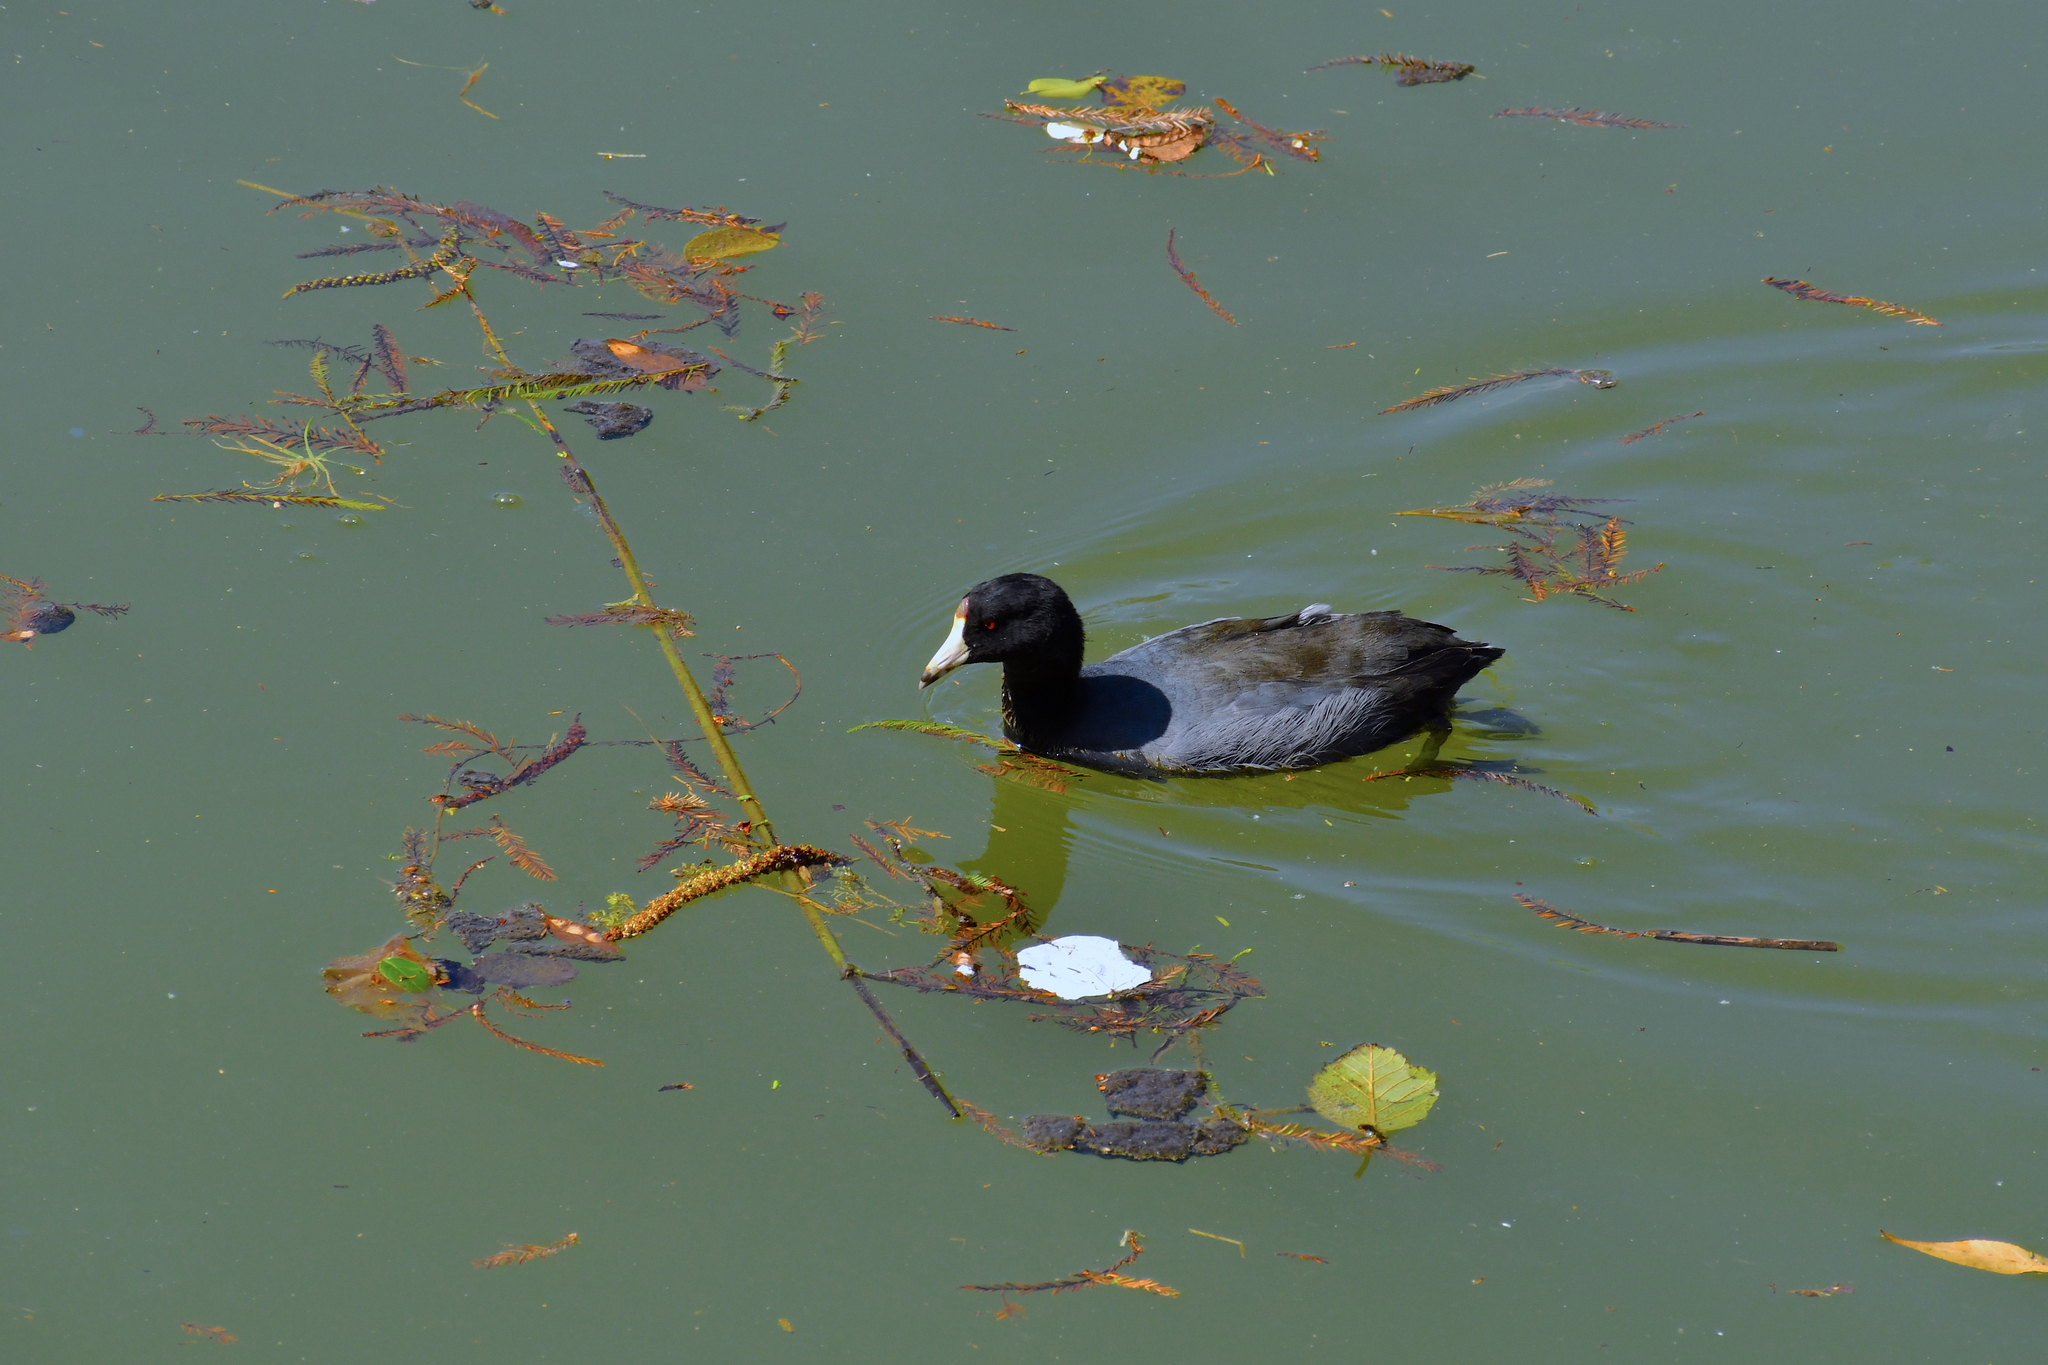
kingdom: Animalia
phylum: Chordata
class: Aves
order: Gruiformes
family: Rallidae
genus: Fulica
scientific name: Fulica americana
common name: American coot
